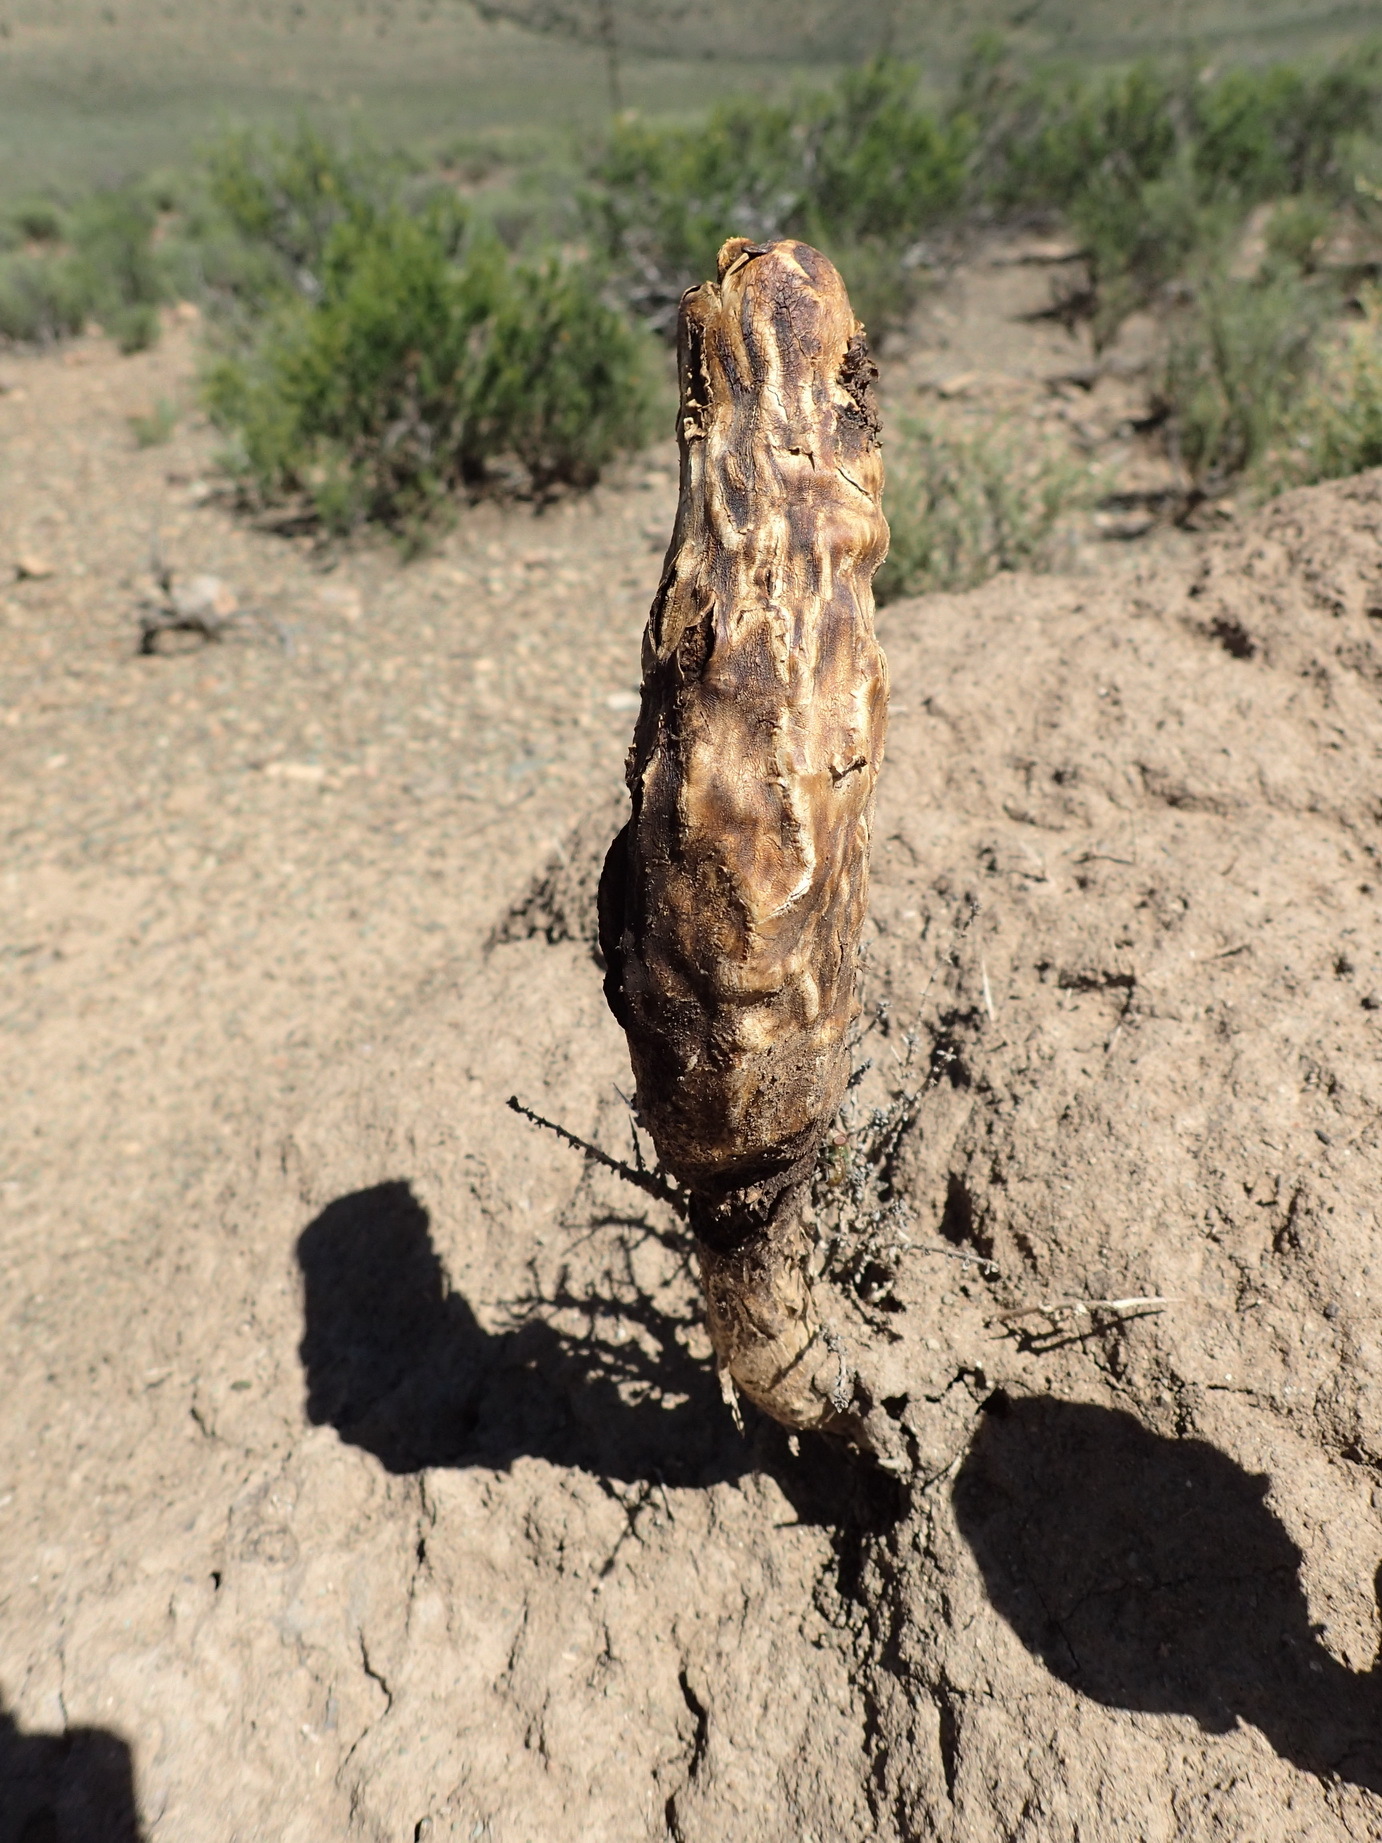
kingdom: Fungi
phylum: Basidiomycota
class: Agaricomycetes
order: Agaricales
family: Agaricaceae
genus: Podaxis
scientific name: Podaxis pistillaris
